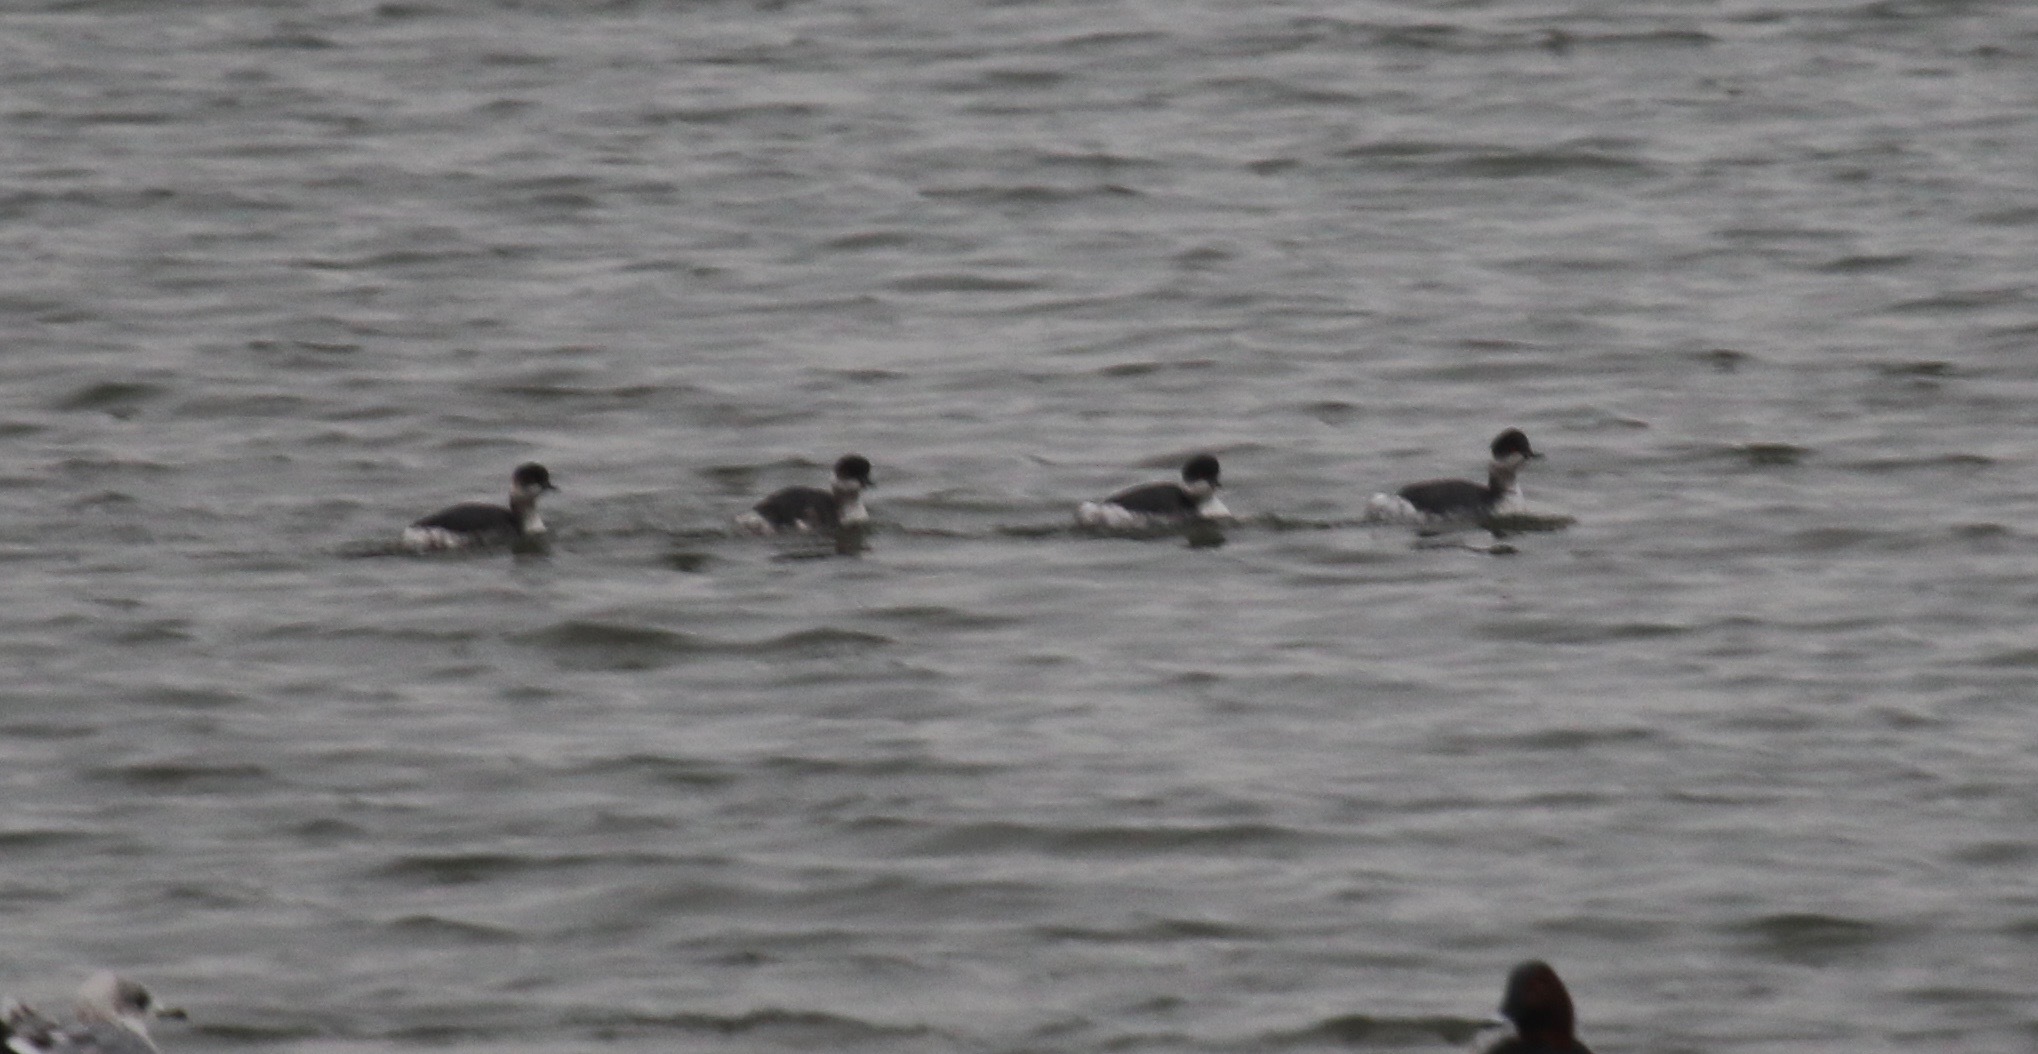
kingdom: Animalia
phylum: Chordata
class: Aves
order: Podicipediformes
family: Podicipedidae
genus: Podiceps
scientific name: Podiceps nigricollis
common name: Black-necked grebe
